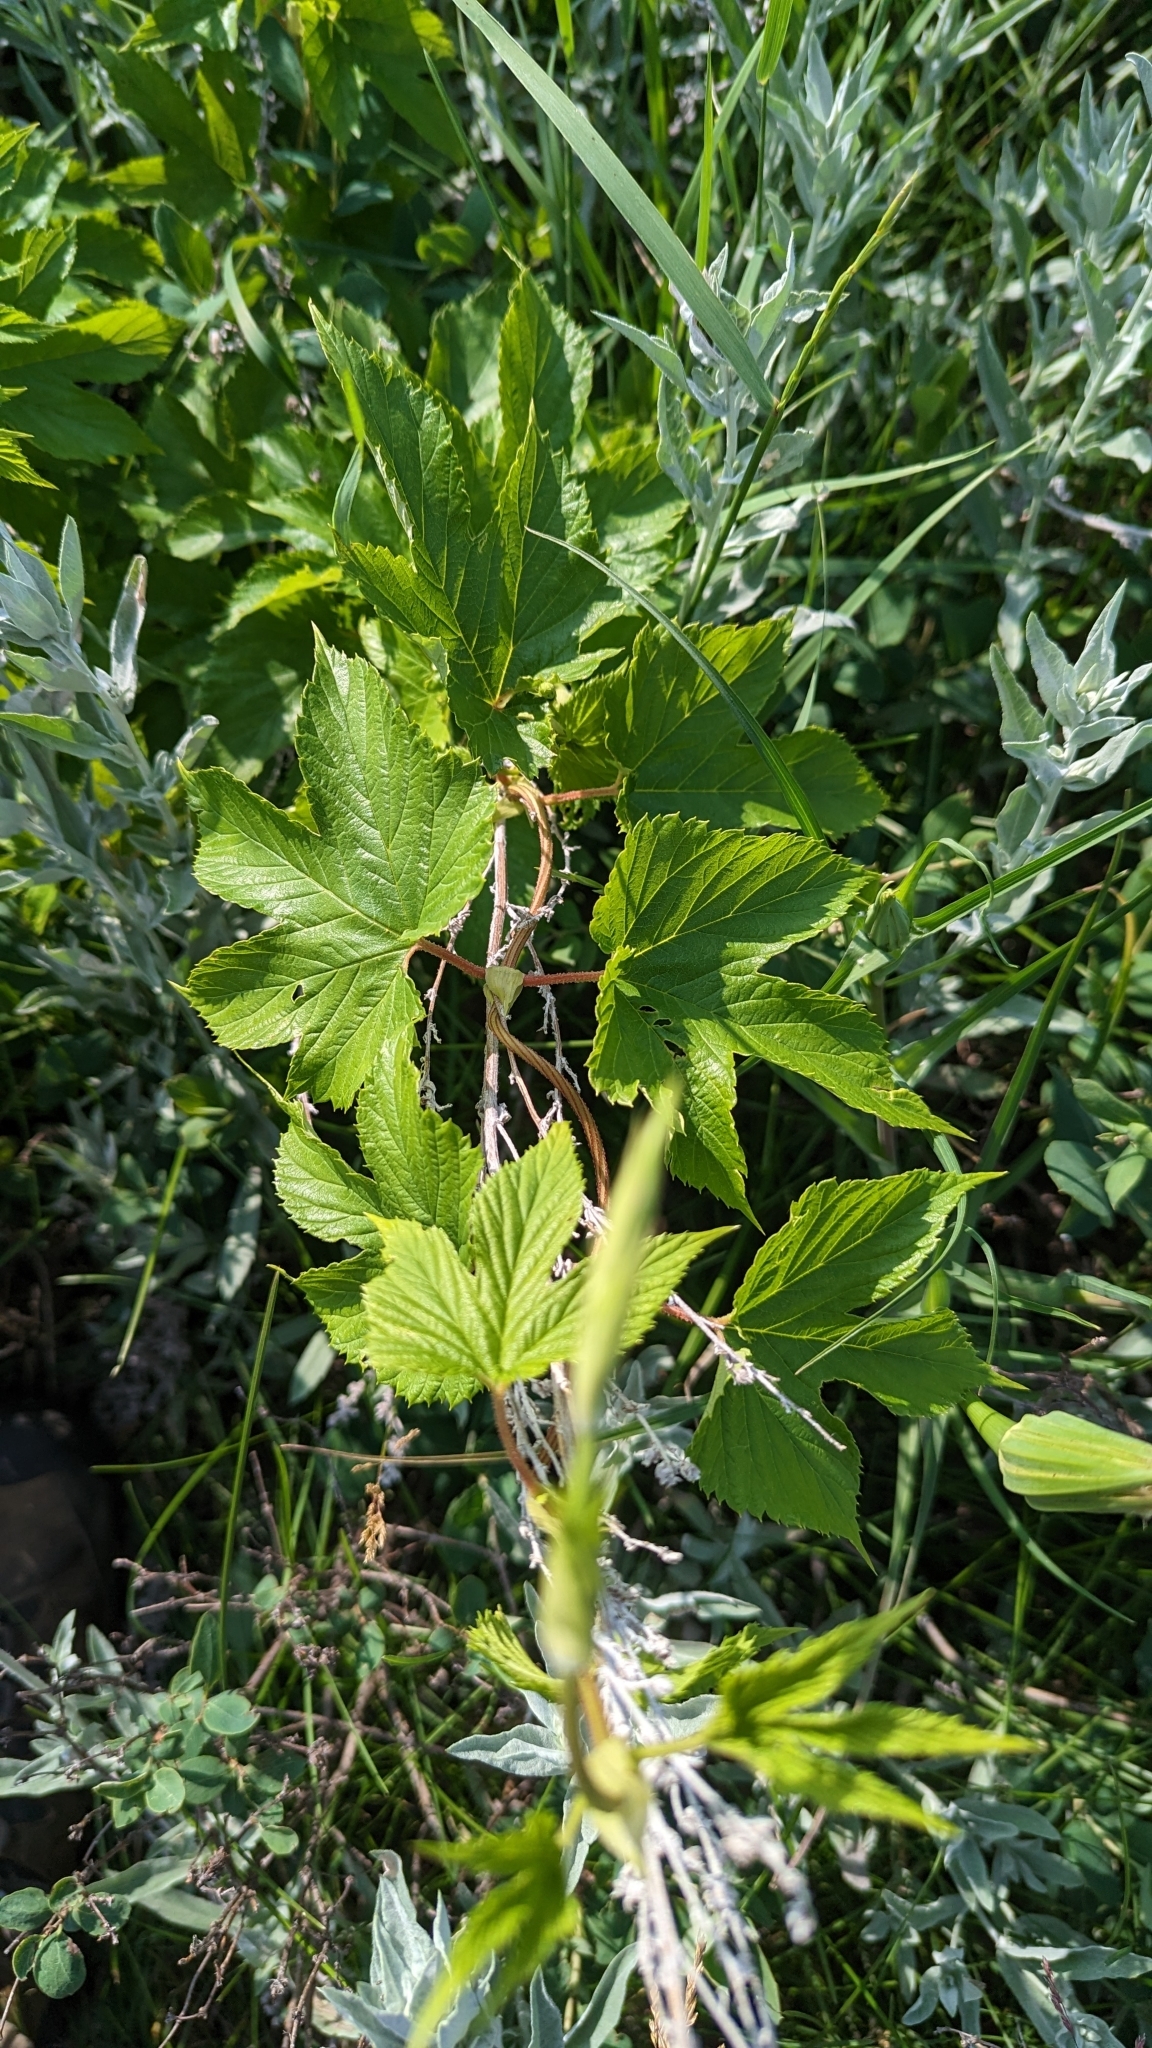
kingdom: Plantae
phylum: Tracheophyta
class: Magnoliopsida
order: Rosales
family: Cannabaceae
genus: Humulus
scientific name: Humulus lupulus
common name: Hop
